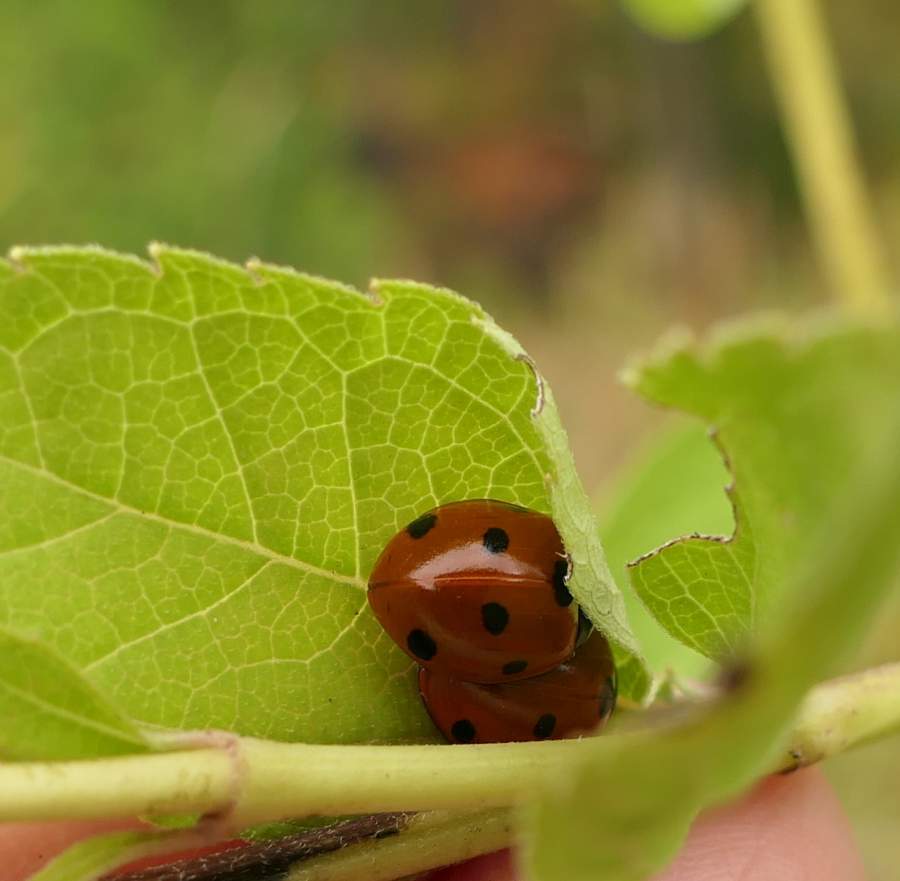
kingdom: Animalia
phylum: Arthropoda
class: Insecta
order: Coleoptera
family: Coccinellidae
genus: Coccinella
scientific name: Coccinella septempunctata
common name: Sevenspotted lady beetle
